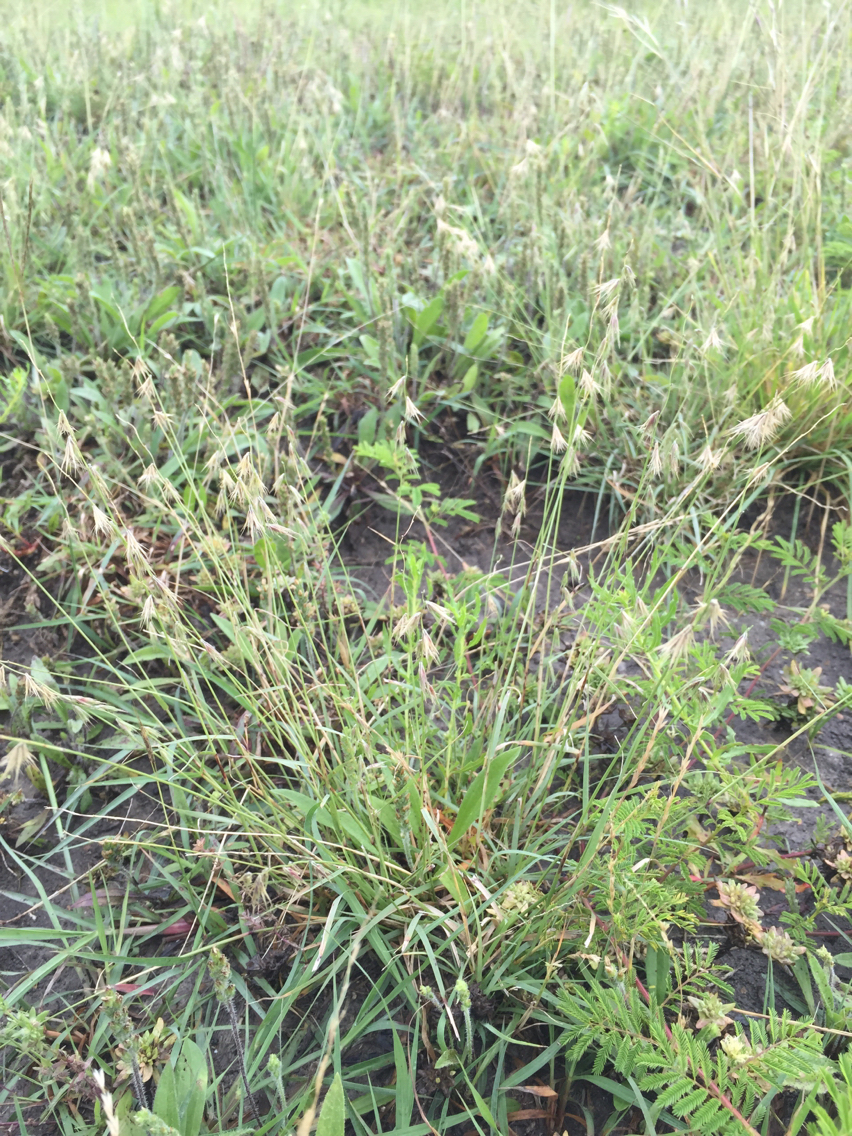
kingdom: Plantae
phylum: Tracheophyta
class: Liliopsida
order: Poales
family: Poaceae
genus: Bouteloua
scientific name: Bouteloua rigidiseta
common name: Texas grama
